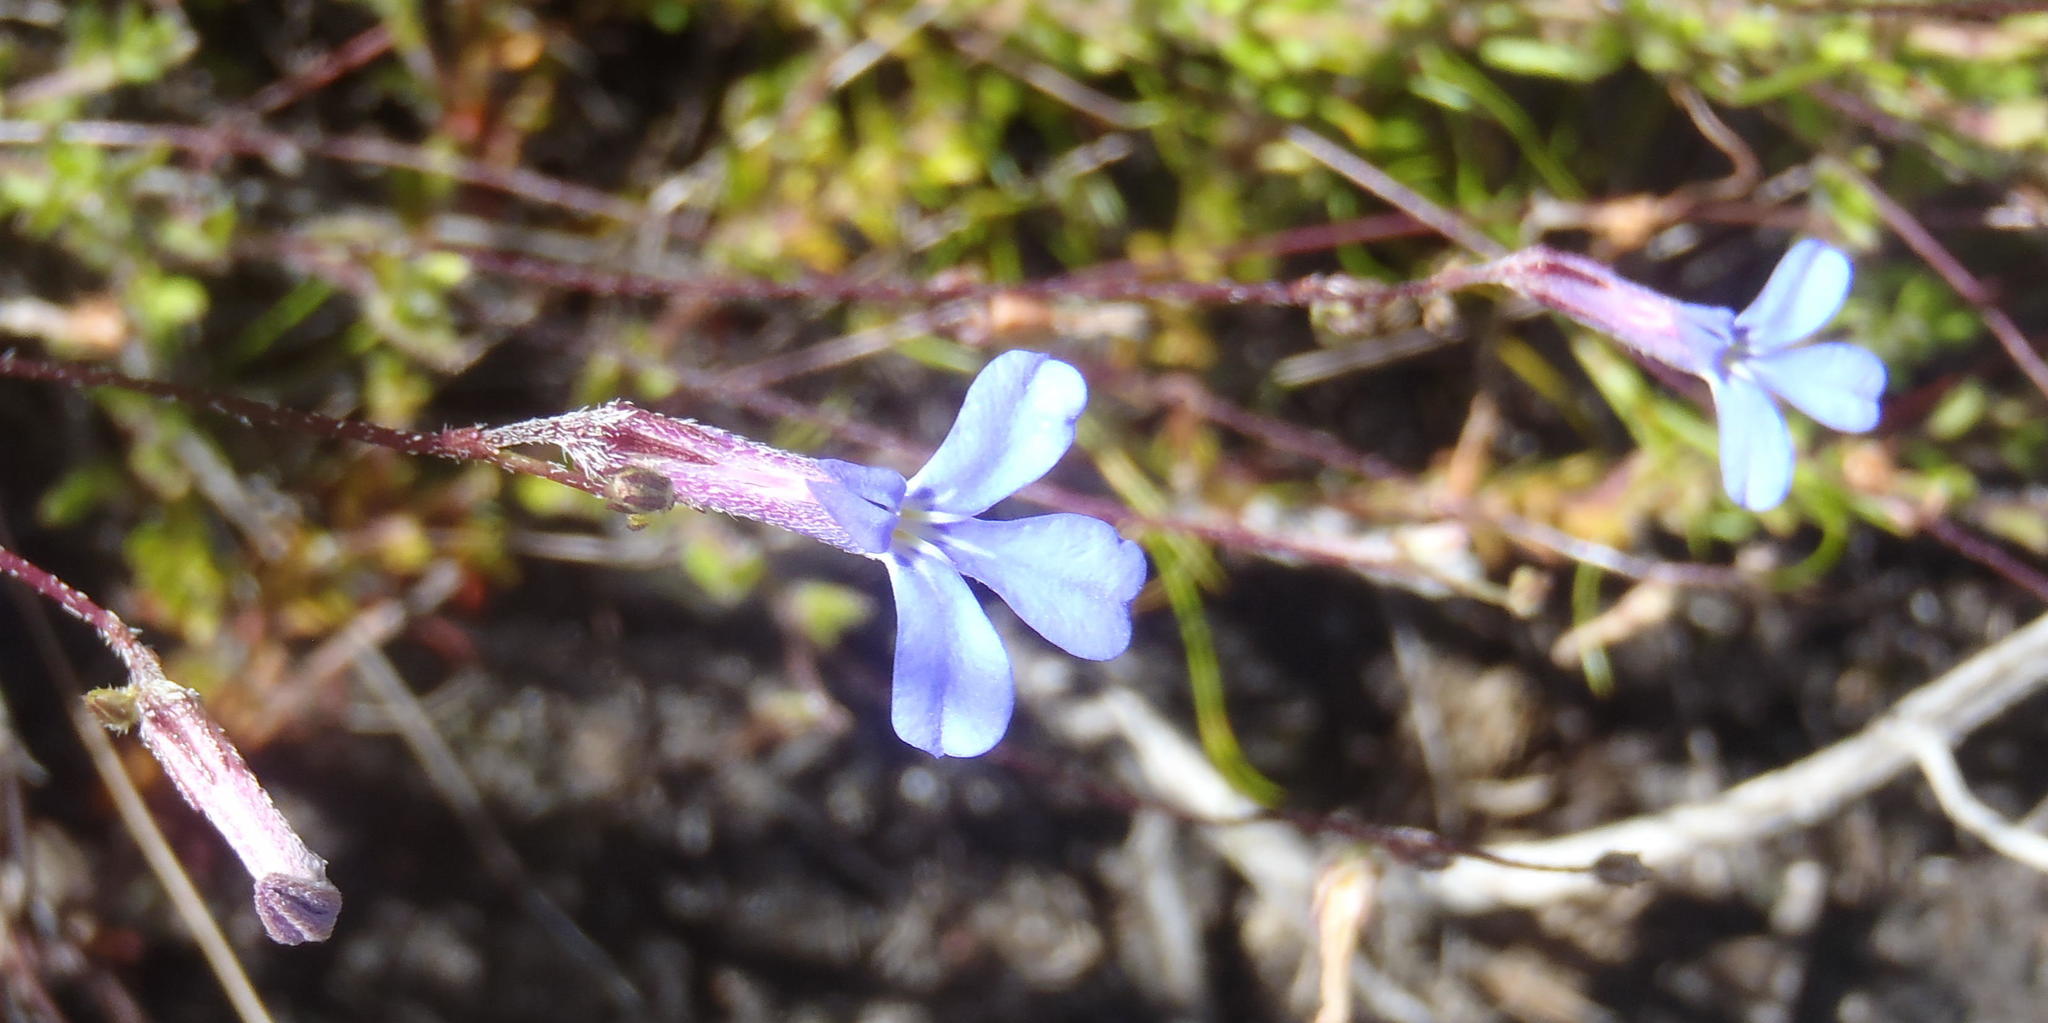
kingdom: Plantae
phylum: Tracheophyta
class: Magnoliopsida
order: Asterales
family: Campanulaceae
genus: Lobelia
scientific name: Lobelia neglecta
